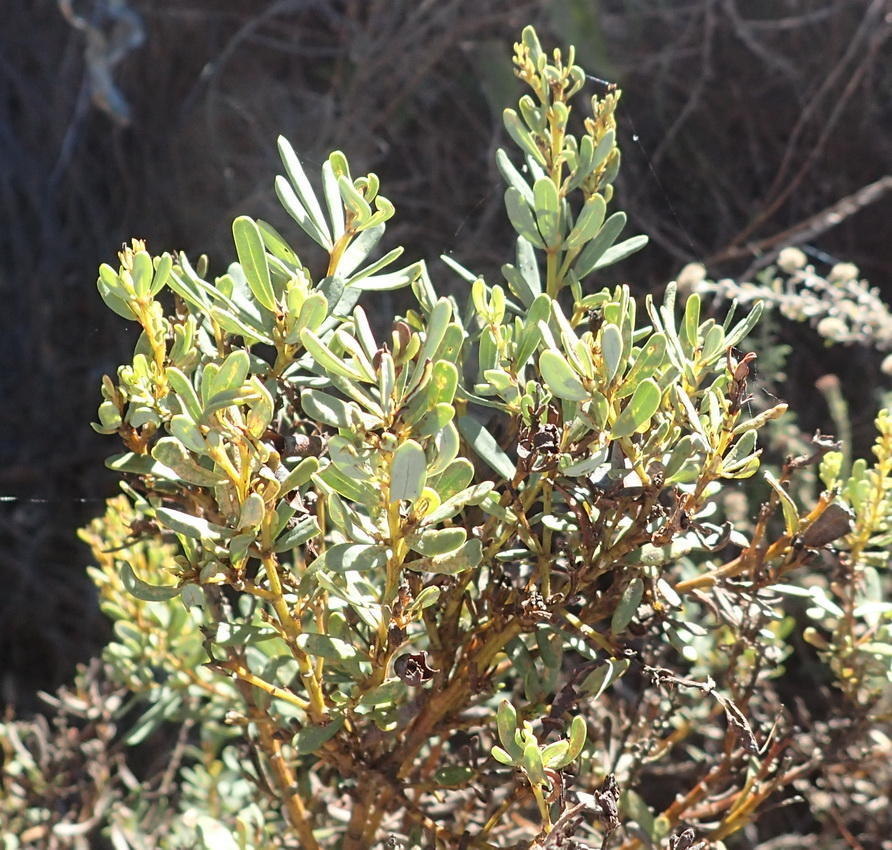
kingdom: Plantae
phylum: Tracheophyta
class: Magnoliopsida
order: Fabales
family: Fabaceae
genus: Cyclopia
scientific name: Cyclopia subternata
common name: Honeybush tea
